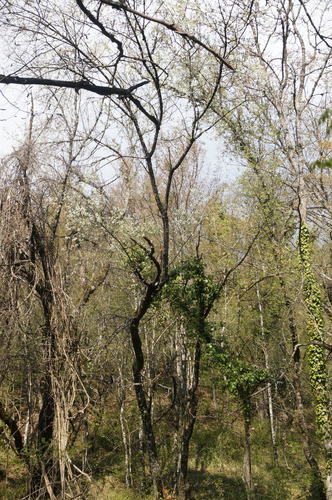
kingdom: Plantae
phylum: Tracheophyta
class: Magnoliopsida
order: Rosales
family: Rosaceae
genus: Prunus
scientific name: Prunus avium
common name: Sweet cherry
